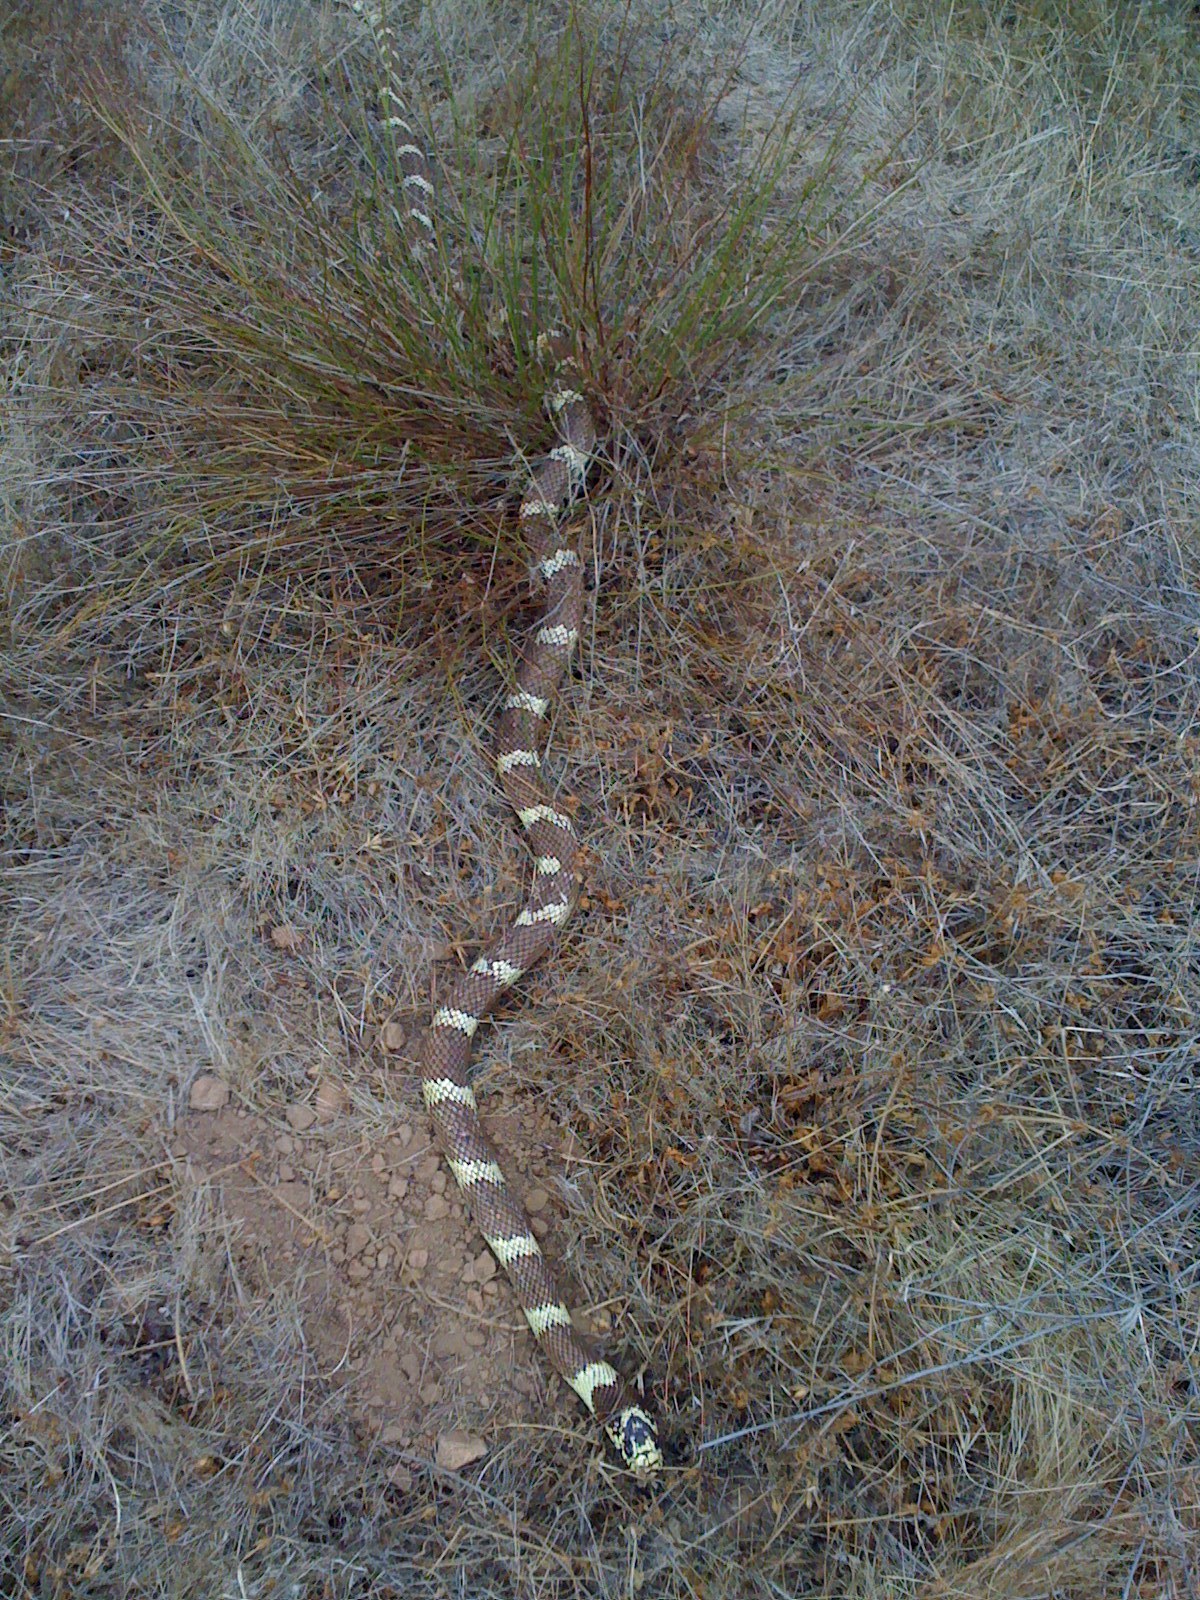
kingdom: Animalia
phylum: Chordata
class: Squamata
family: Colubridae
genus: Lampropeltis
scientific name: Lampropeltis californiae
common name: California kingsnake
